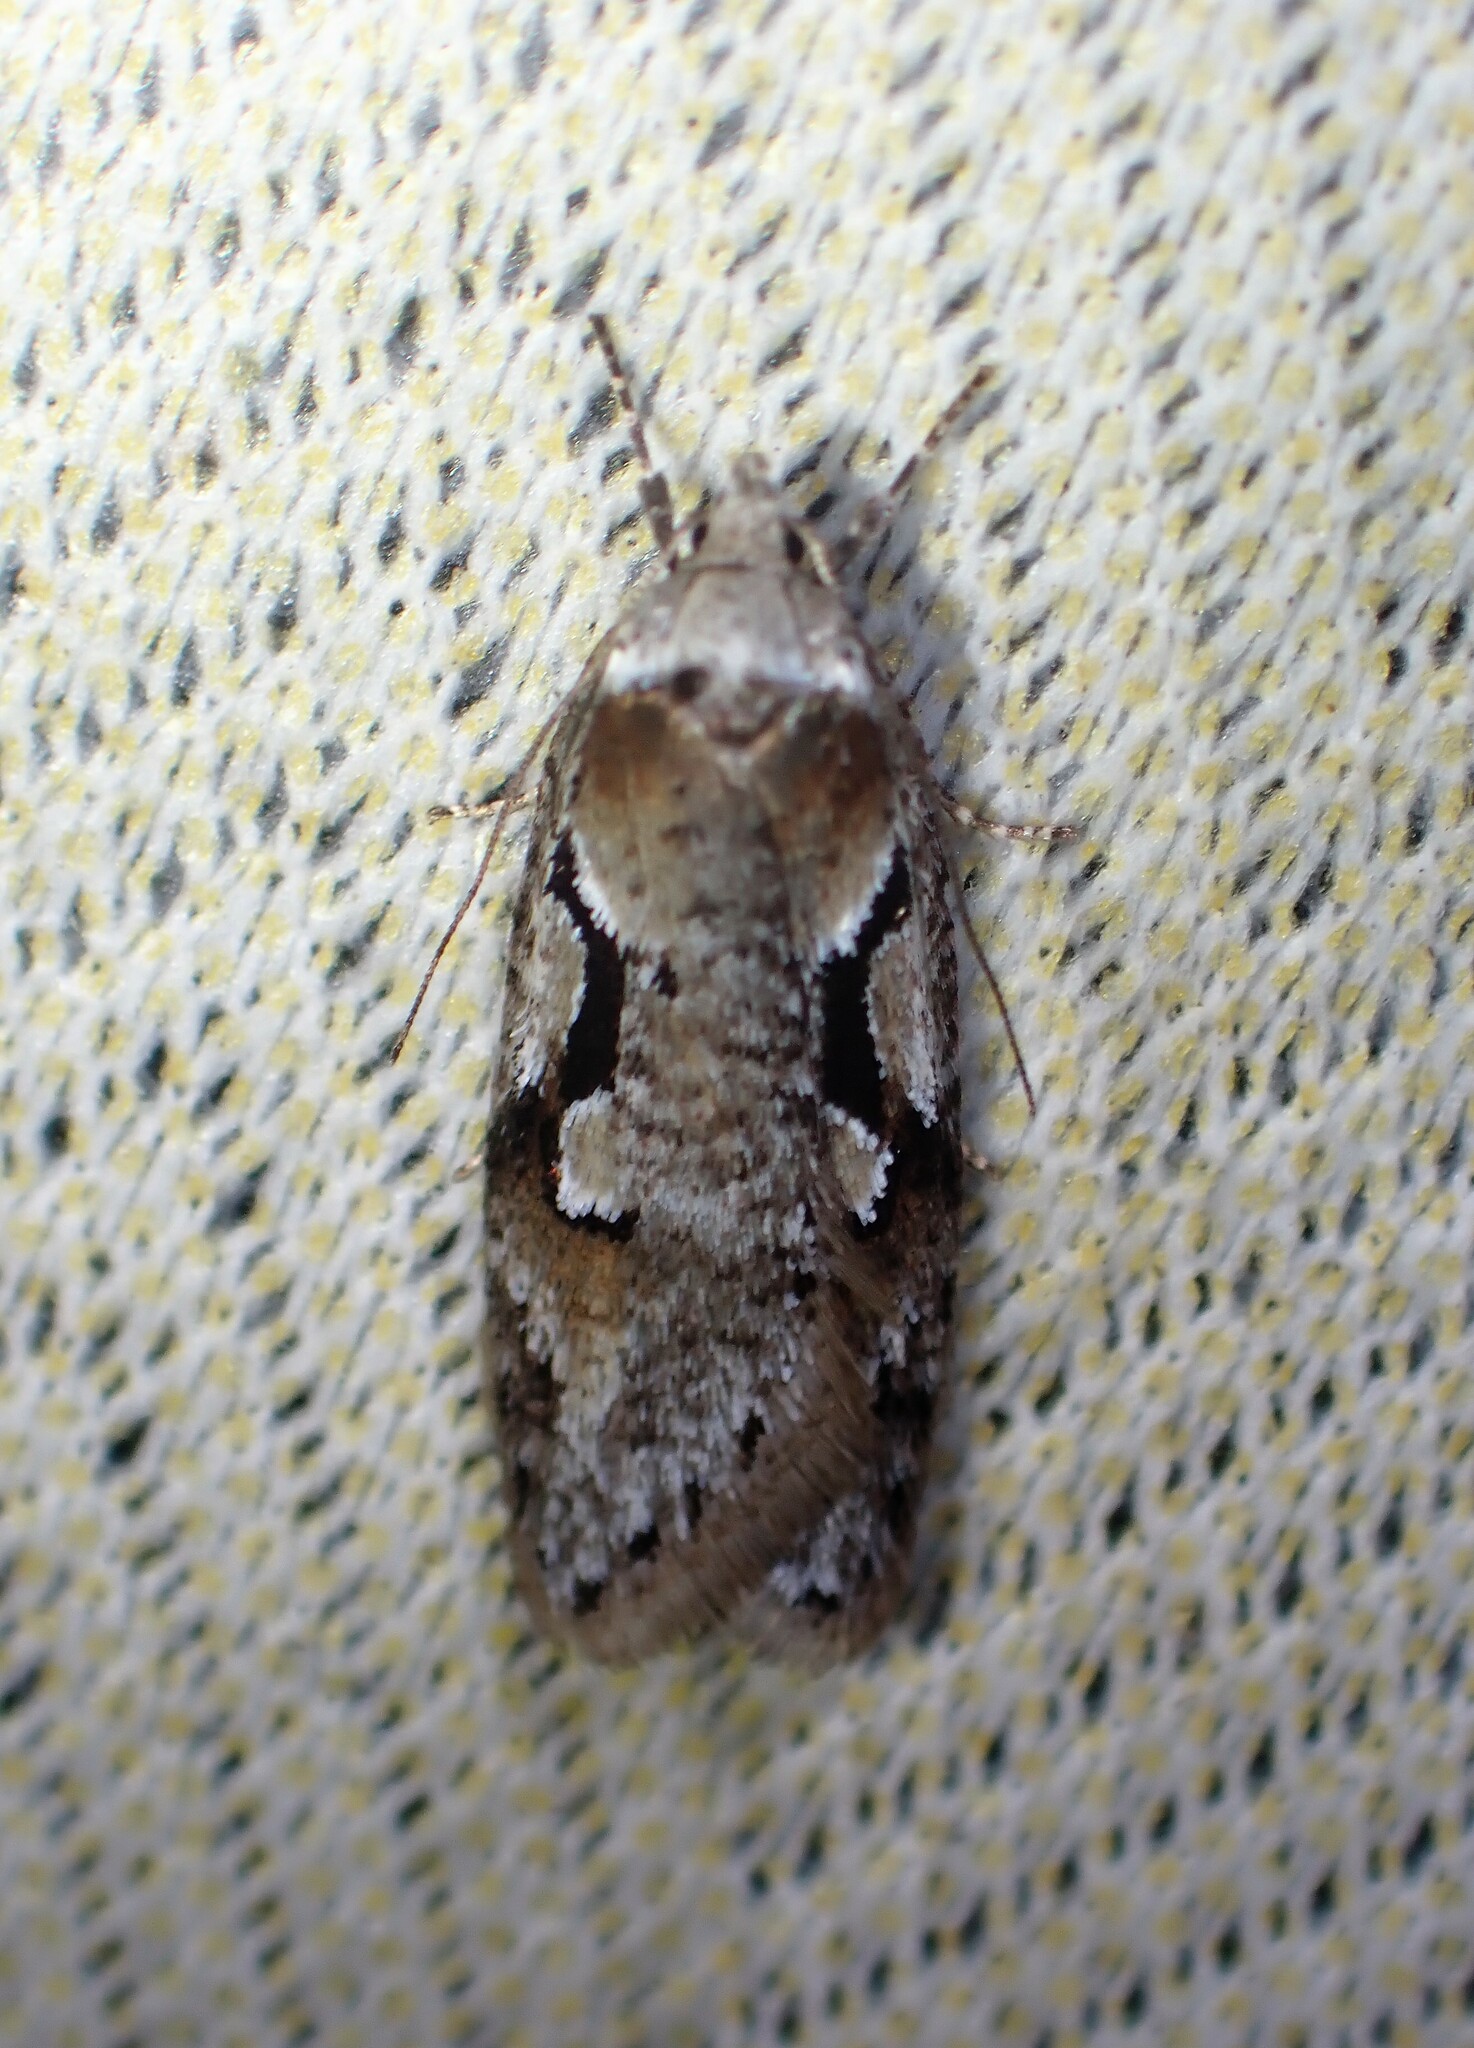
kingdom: Animalia
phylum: Arthropoda
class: Insecta
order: Lepidoptera
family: Depressariidae
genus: Semioscopis
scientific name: Semioscopis merriccella
